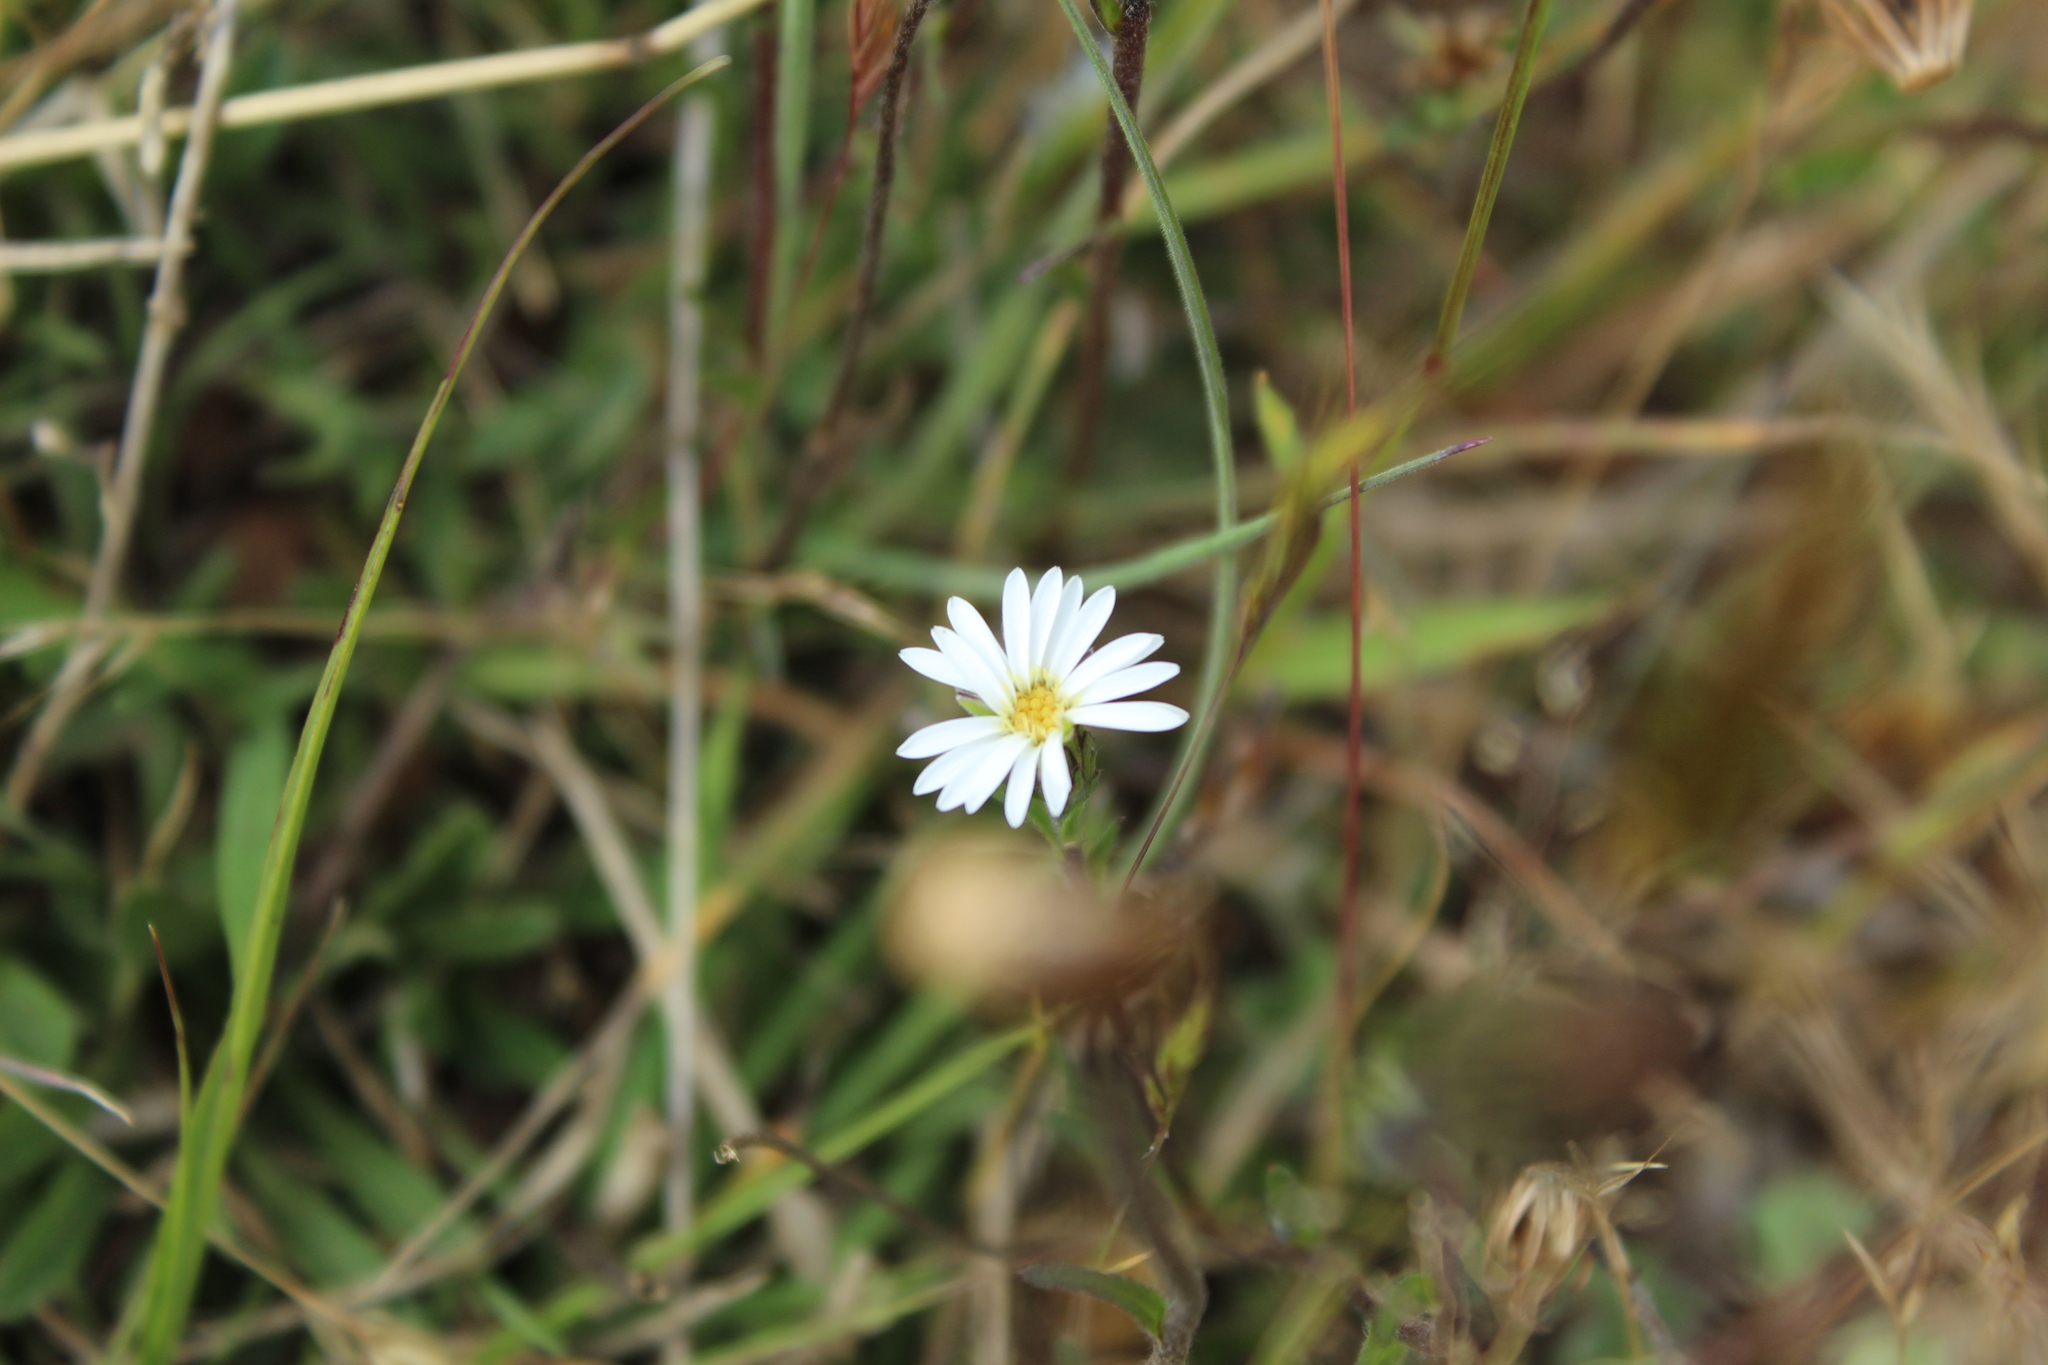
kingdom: Plantae
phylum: Tracheophyta
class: Magnoliopsida
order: Asterales
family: Asteraceae
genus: Noticastrum
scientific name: Noticastrum marginatum
